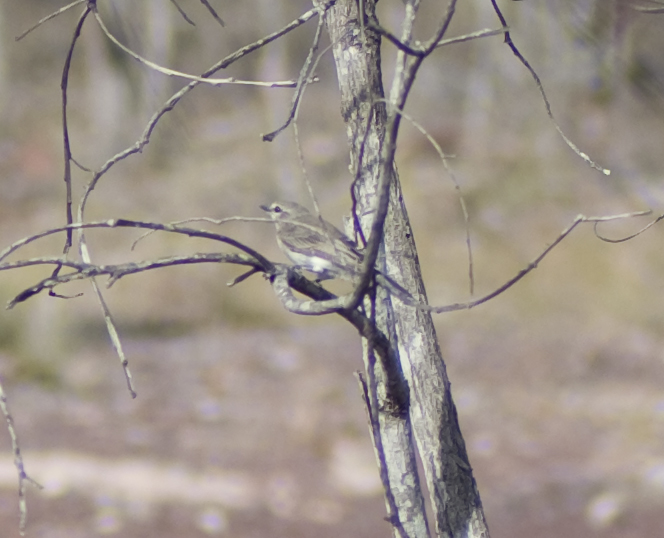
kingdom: Animalia
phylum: Chordata
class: Aves
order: Passeriformes
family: Locustellidae
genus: Megalurus
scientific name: Megalurus mathewsi
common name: Rufous songlark
